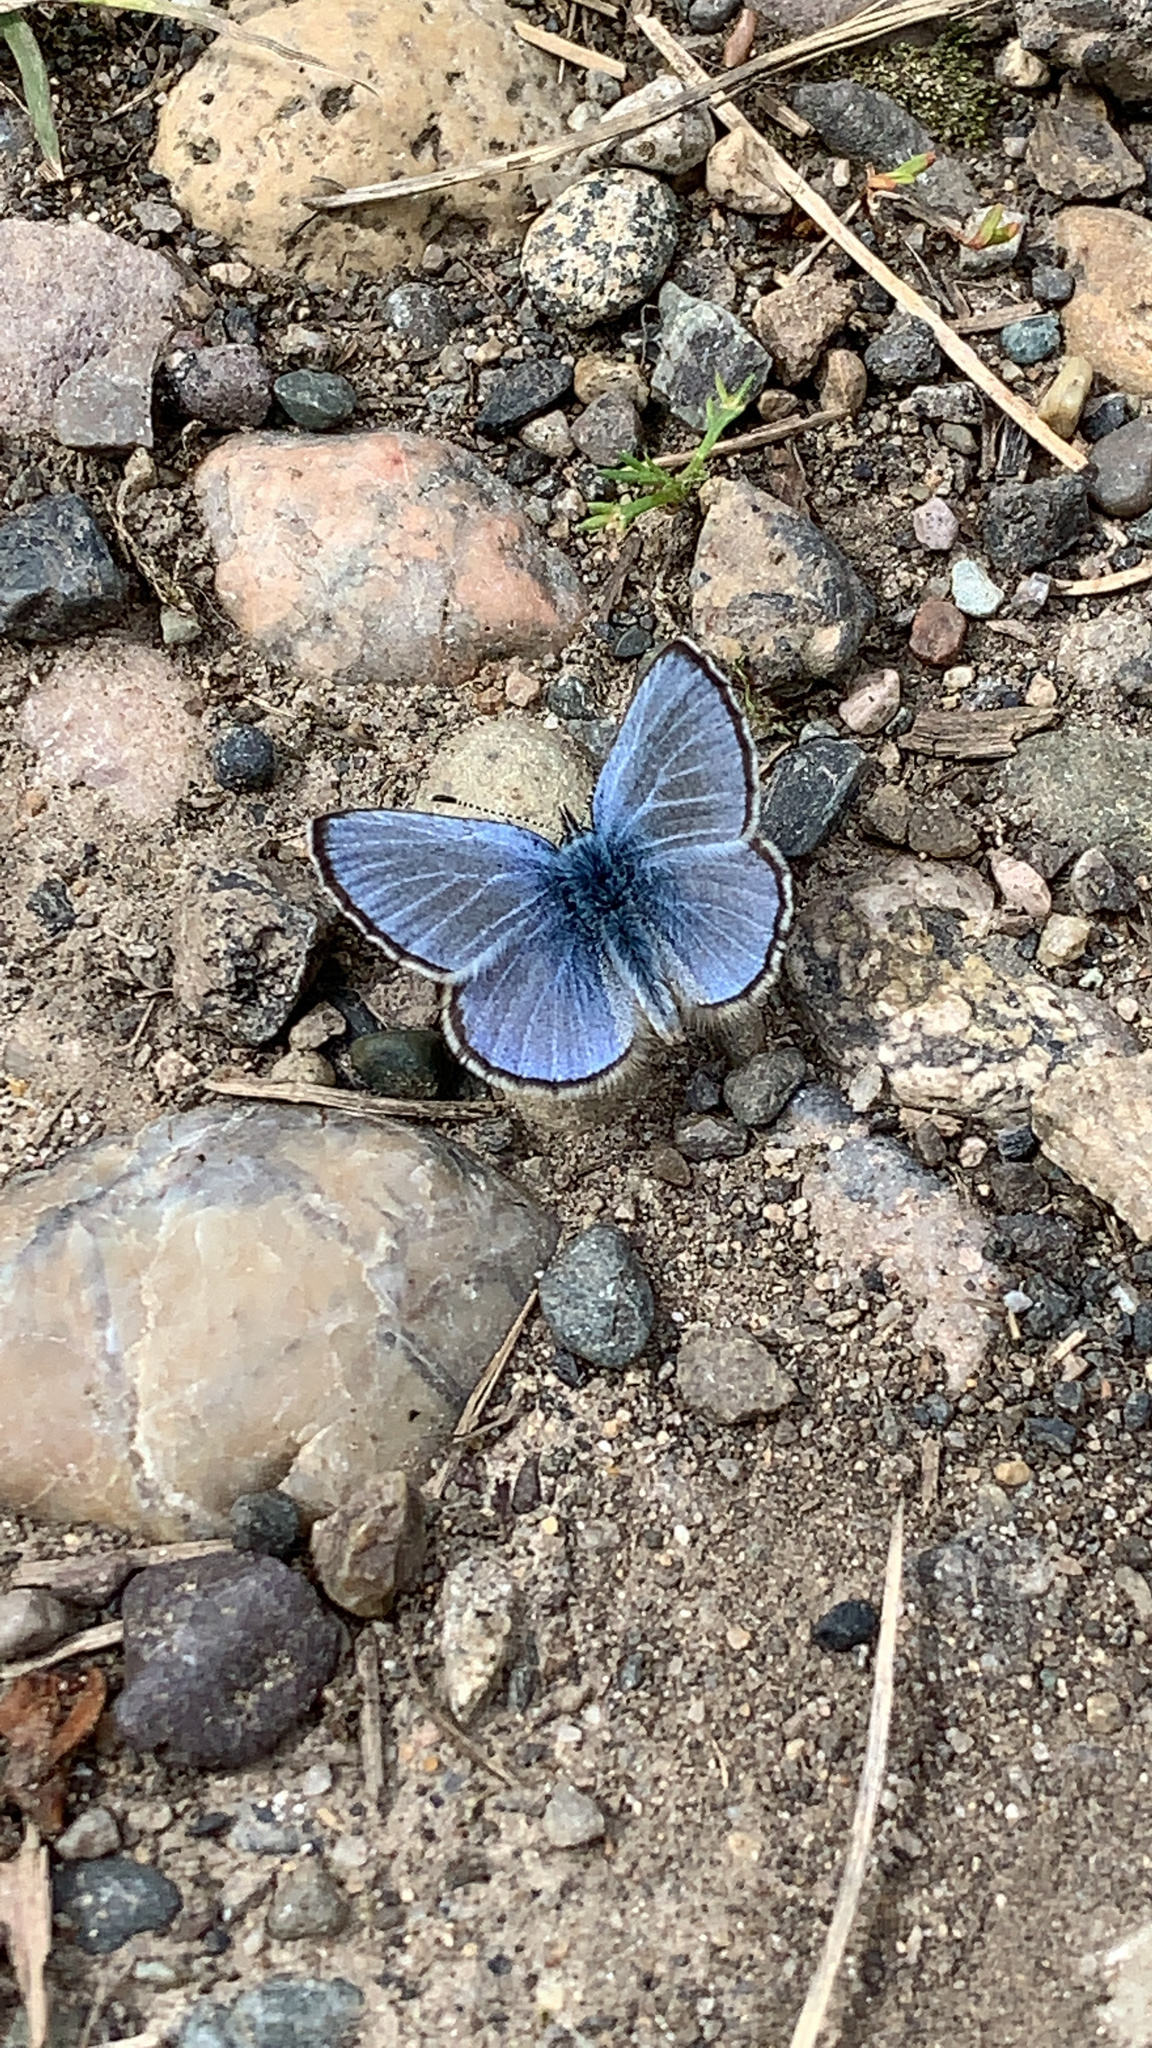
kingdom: Animalia
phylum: Arthropoda
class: Insecta
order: Lepidoptera
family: Lycaenidae
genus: Glaucopsyche
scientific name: Glaucopsyche lygdamus
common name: Silvery blue
